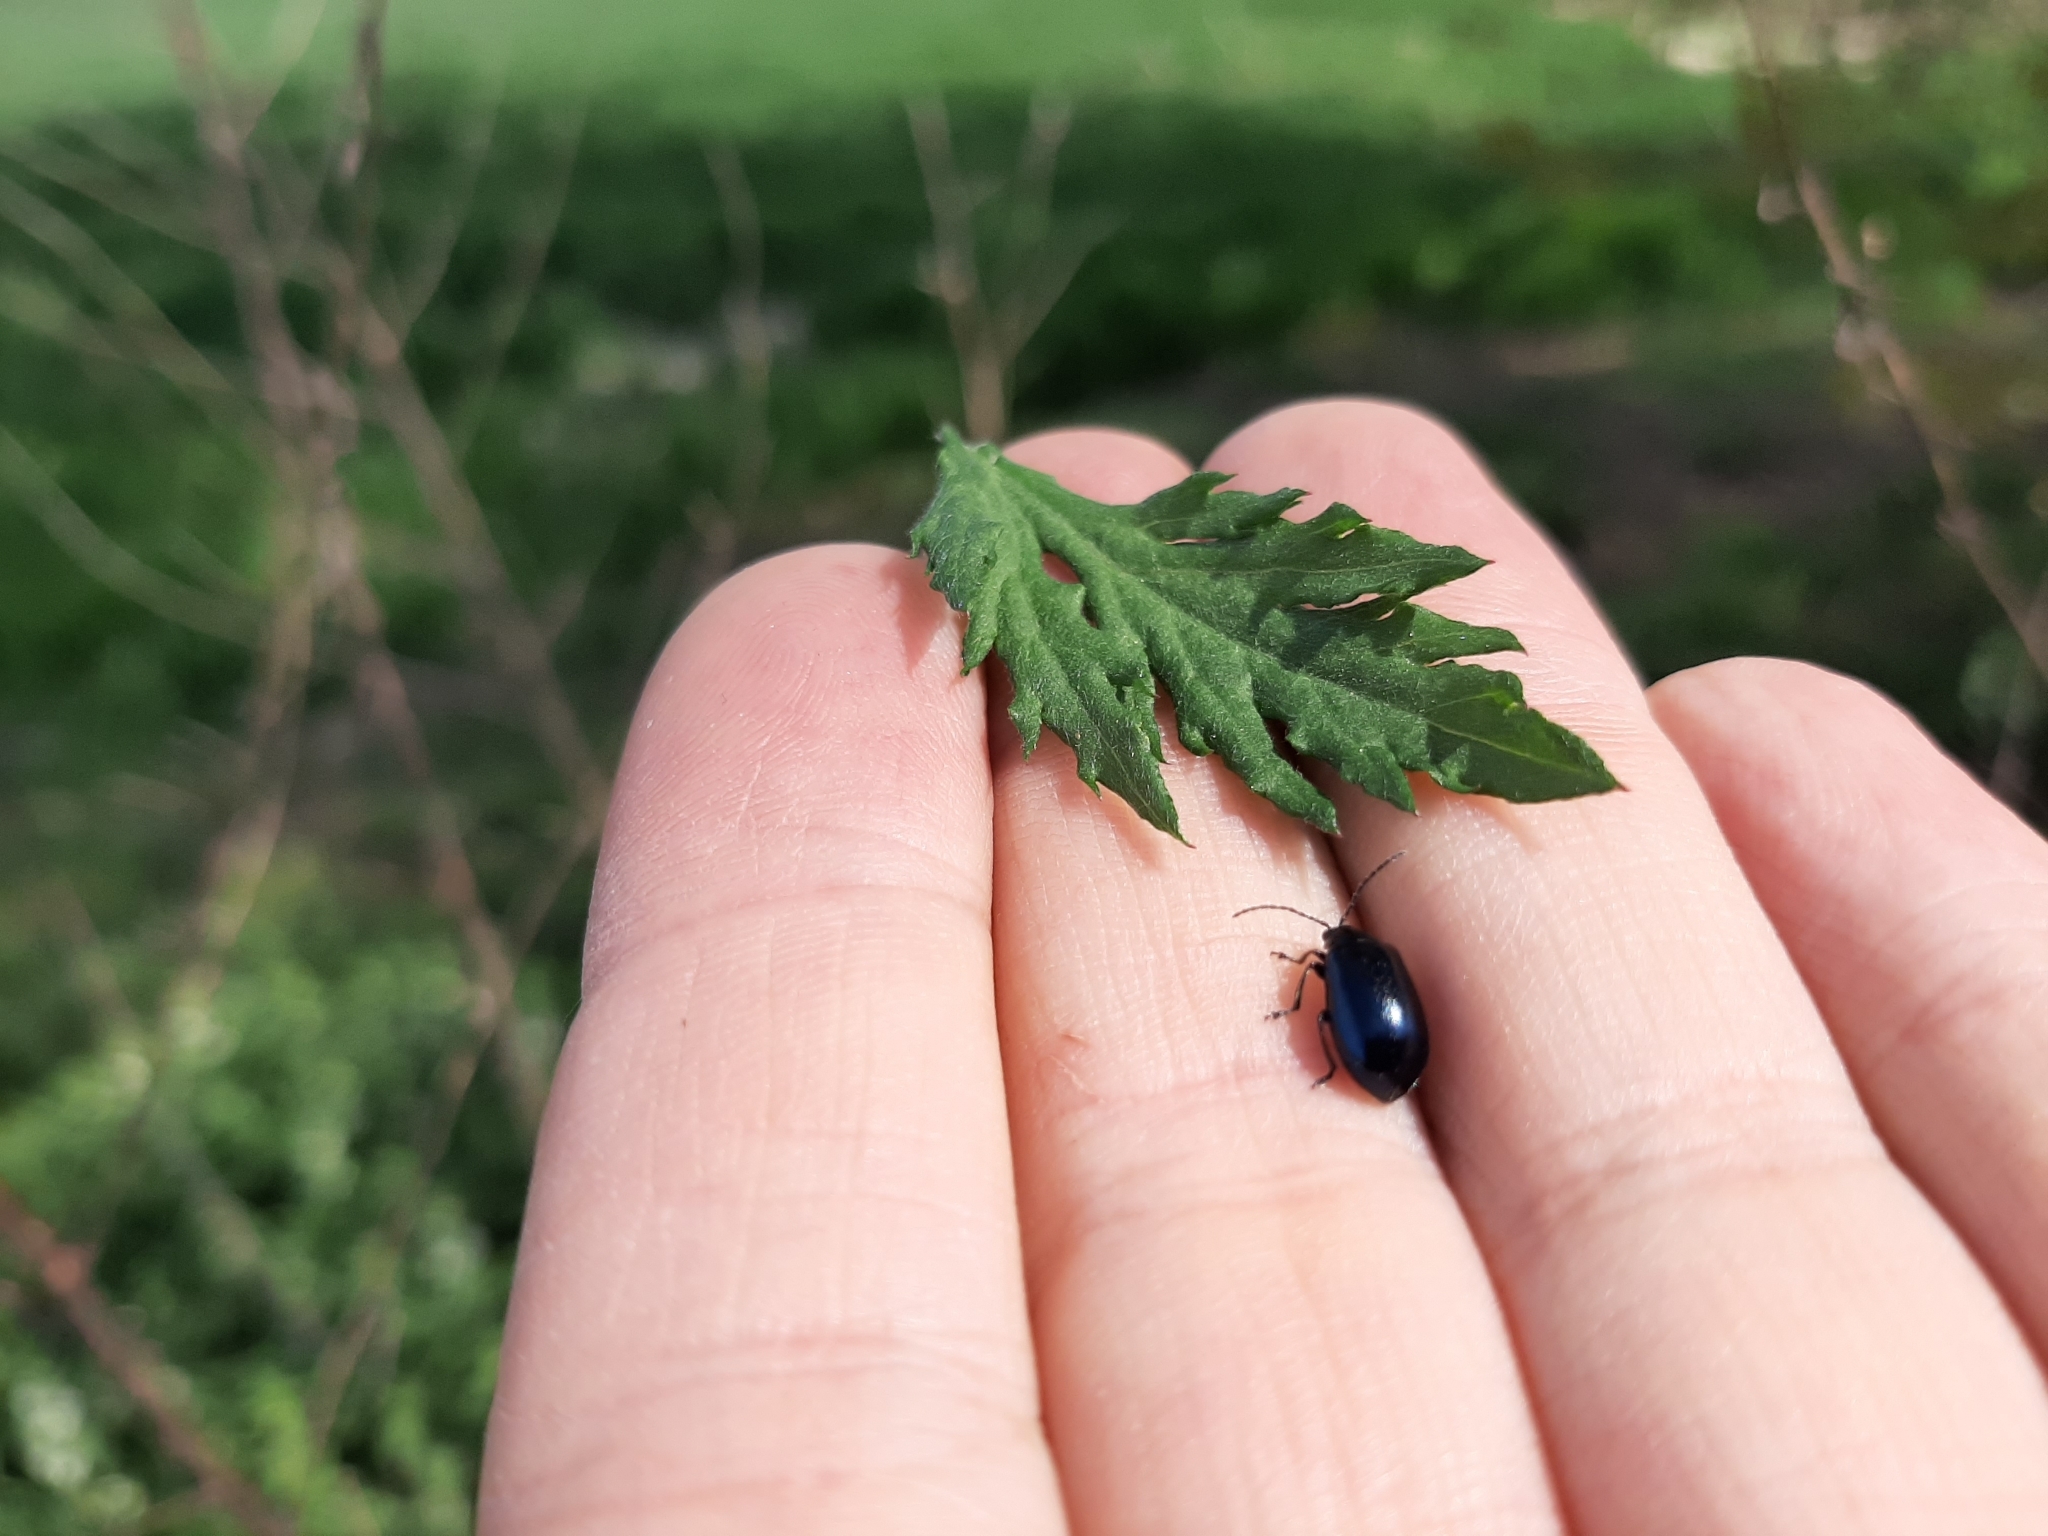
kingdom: Animalia
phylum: Arthropoda
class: Insecta
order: Coleoptera
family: Chrysomelidae
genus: Agelastica
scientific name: Agelastica alni
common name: Alder leaf beetle
